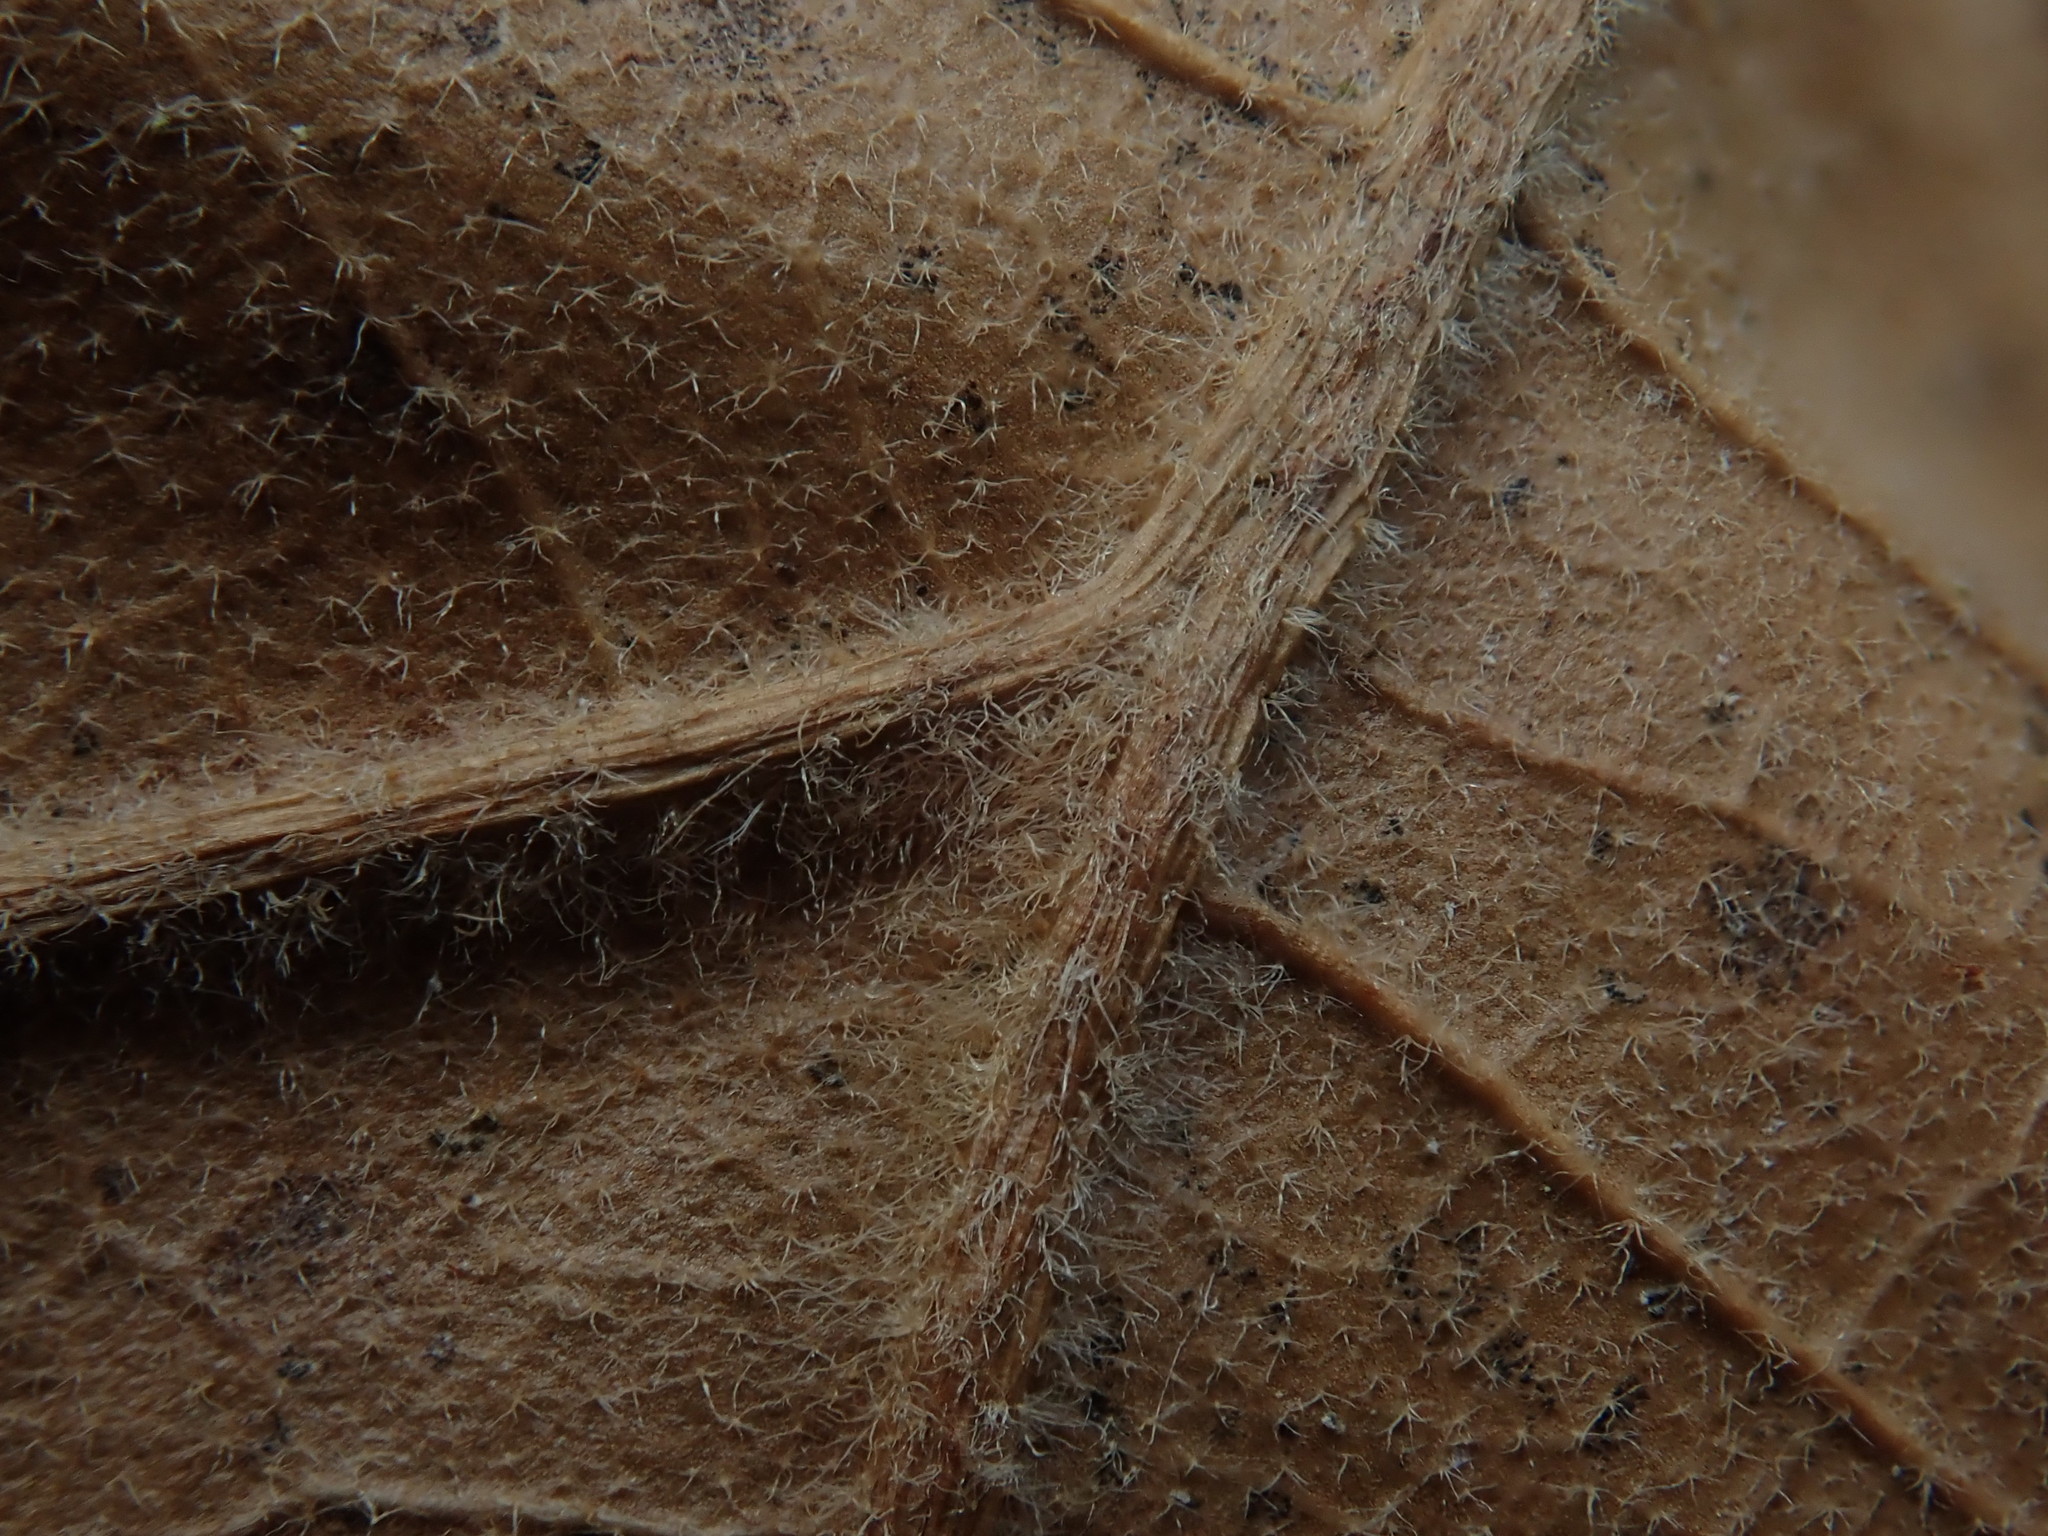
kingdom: Plantae
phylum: Tracheophyta
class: Magnoliopsida
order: Fagales
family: Fagaceae
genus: Quercus
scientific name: Quercus velutina
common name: Black oak
